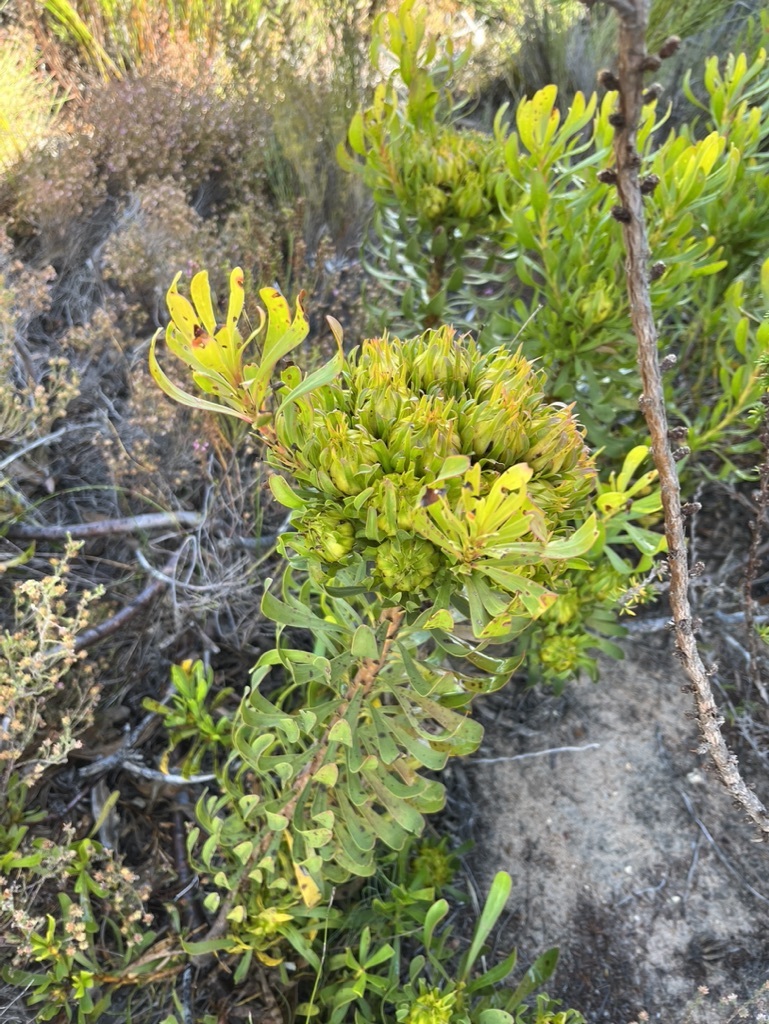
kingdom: Plantae
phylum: Tracheophyta
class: Magnoliopsida
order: Proteales
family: Proteaceae
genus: Aulax
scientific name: Aulax umbellata
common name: Broad-leaf featherbush
